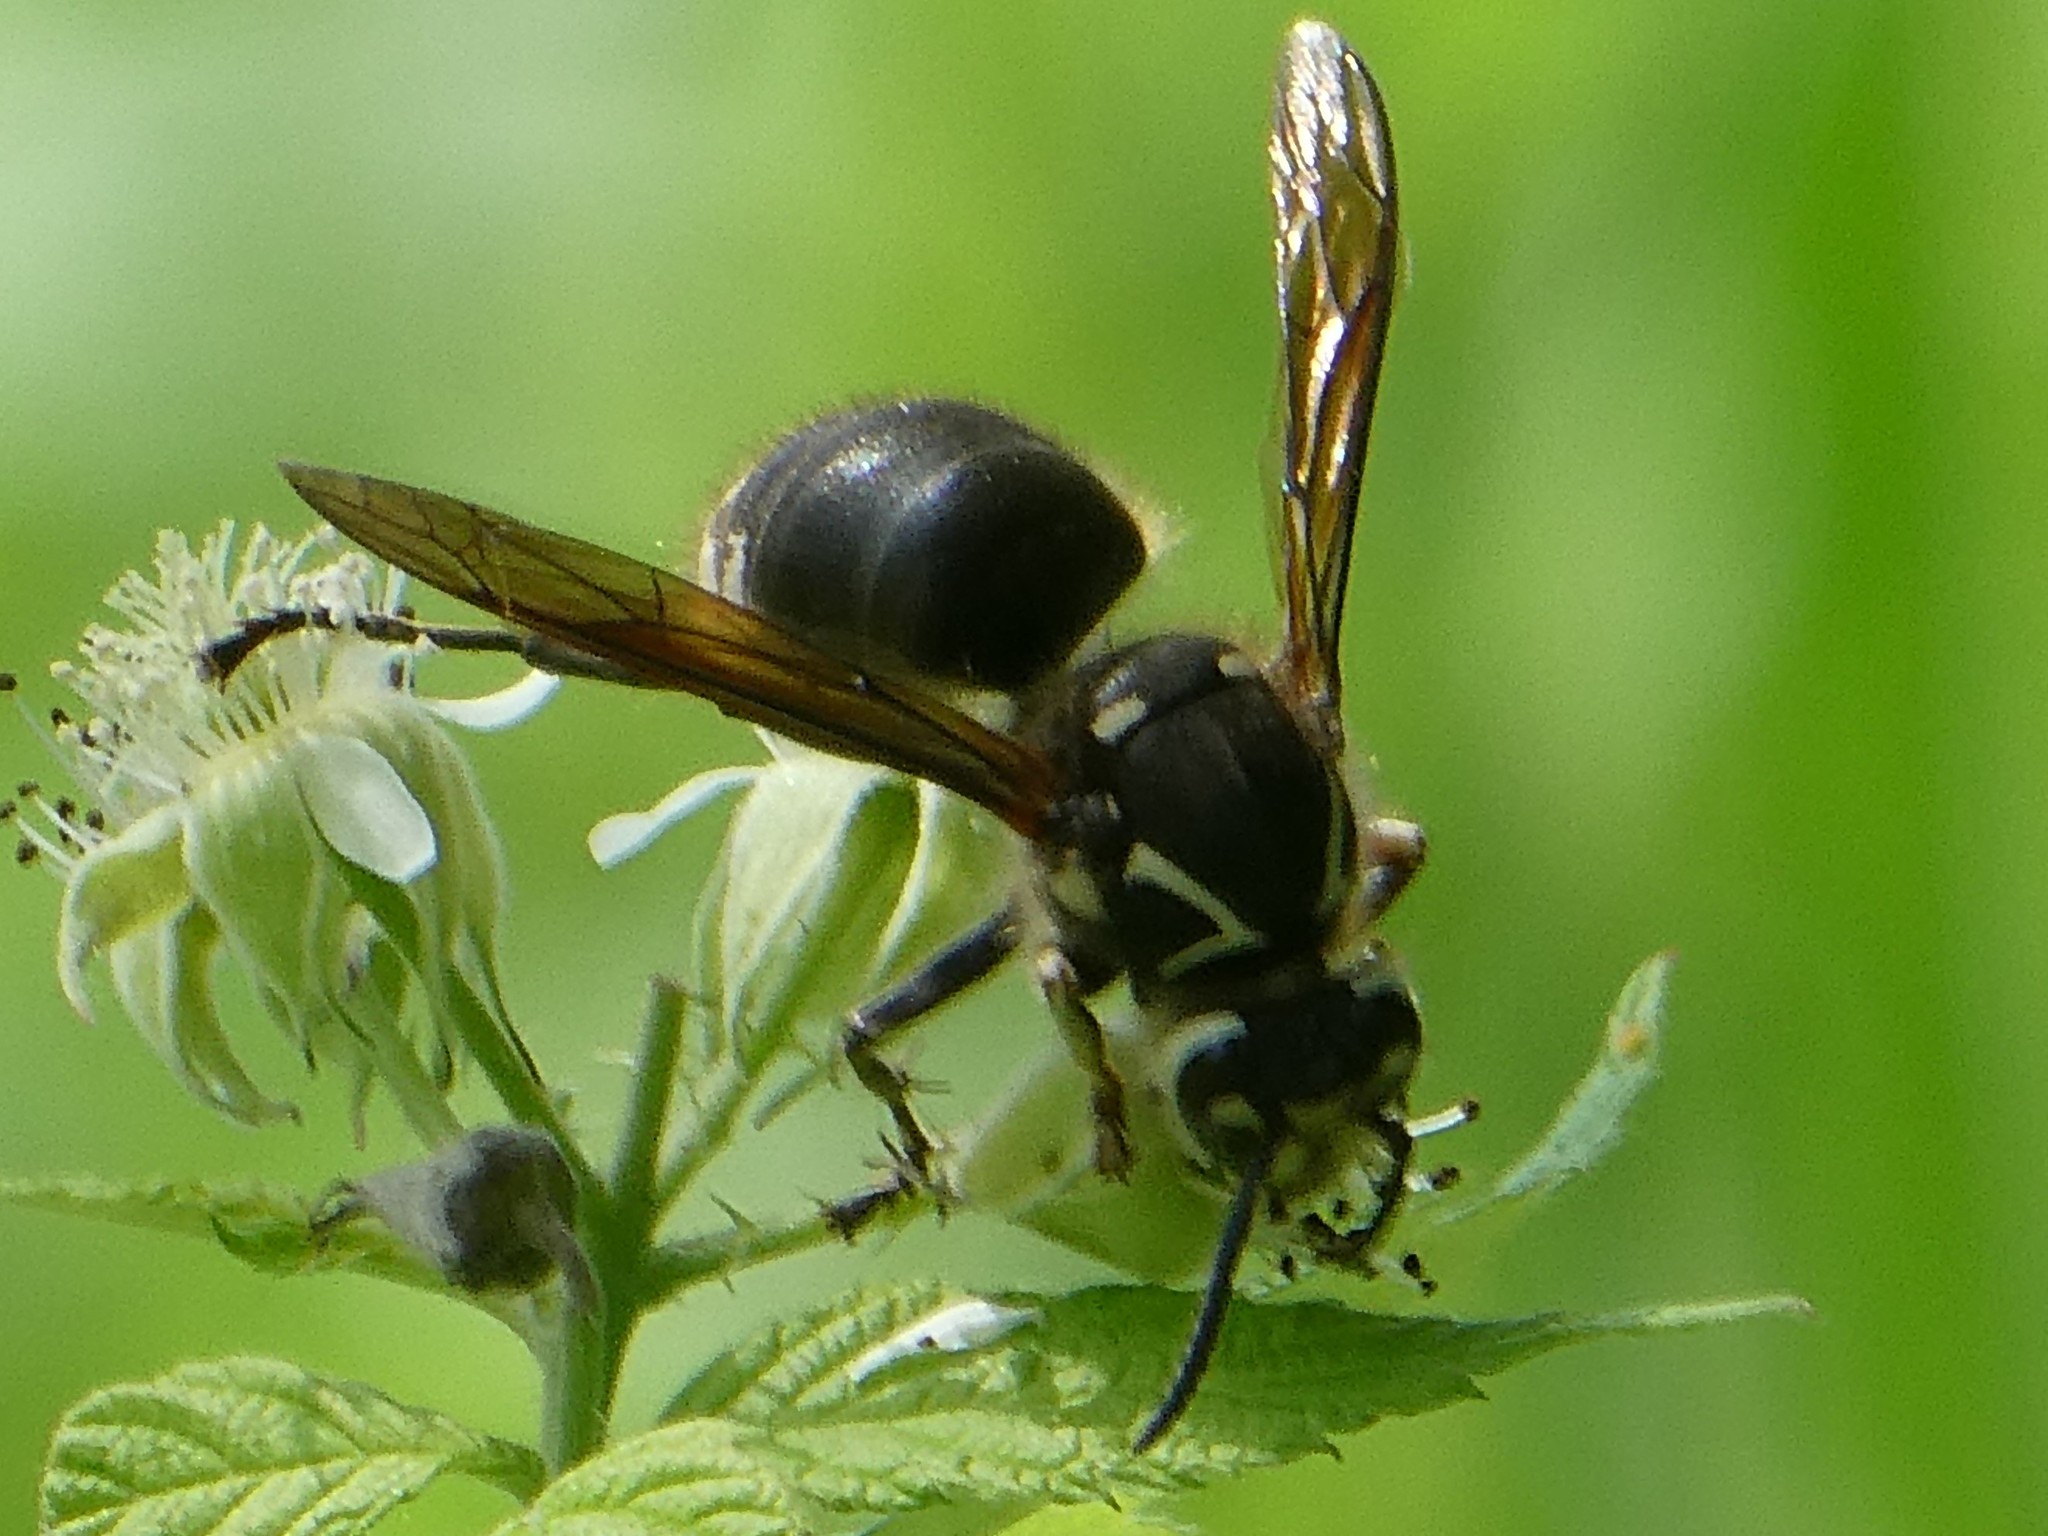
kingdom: Animalia
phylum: Arthropoda
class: Insecta
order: Hymenoptera
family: Vespidae
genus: Dolichovespula
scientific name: Dolichovespula maculata
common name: Bald-faced hornet
